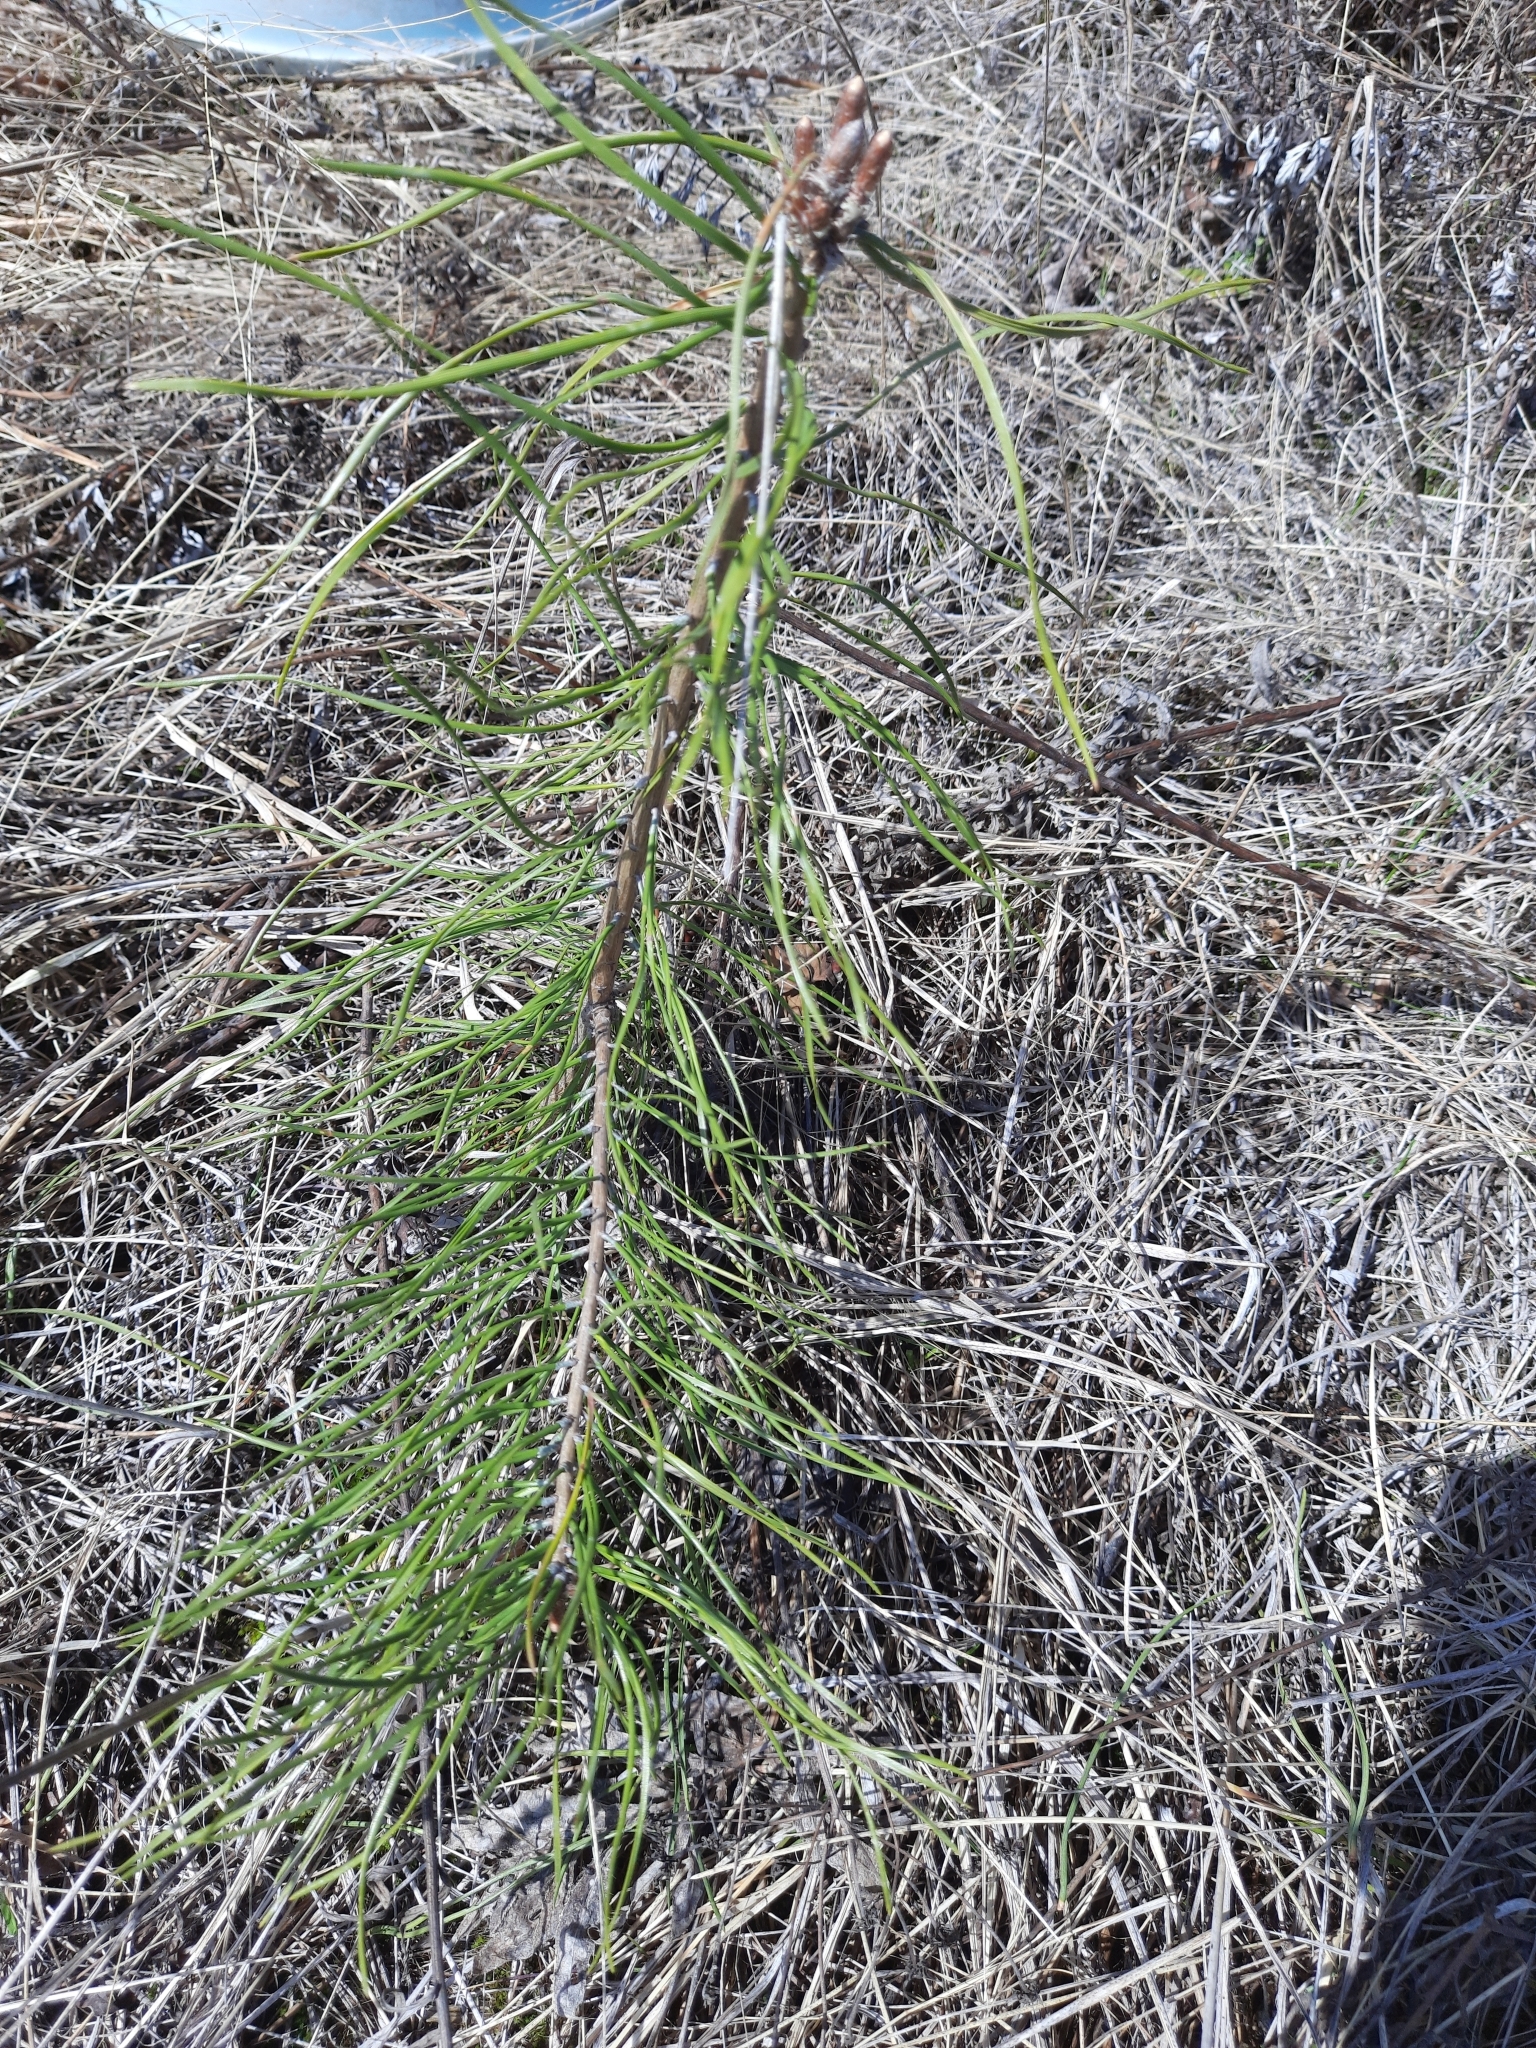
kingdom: Plantae
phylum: Tracheophyta
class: Pinopsida
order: Pinales
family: Pinaceae
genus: Pinus
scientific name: Pinus sibirica
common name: Siberian pine
